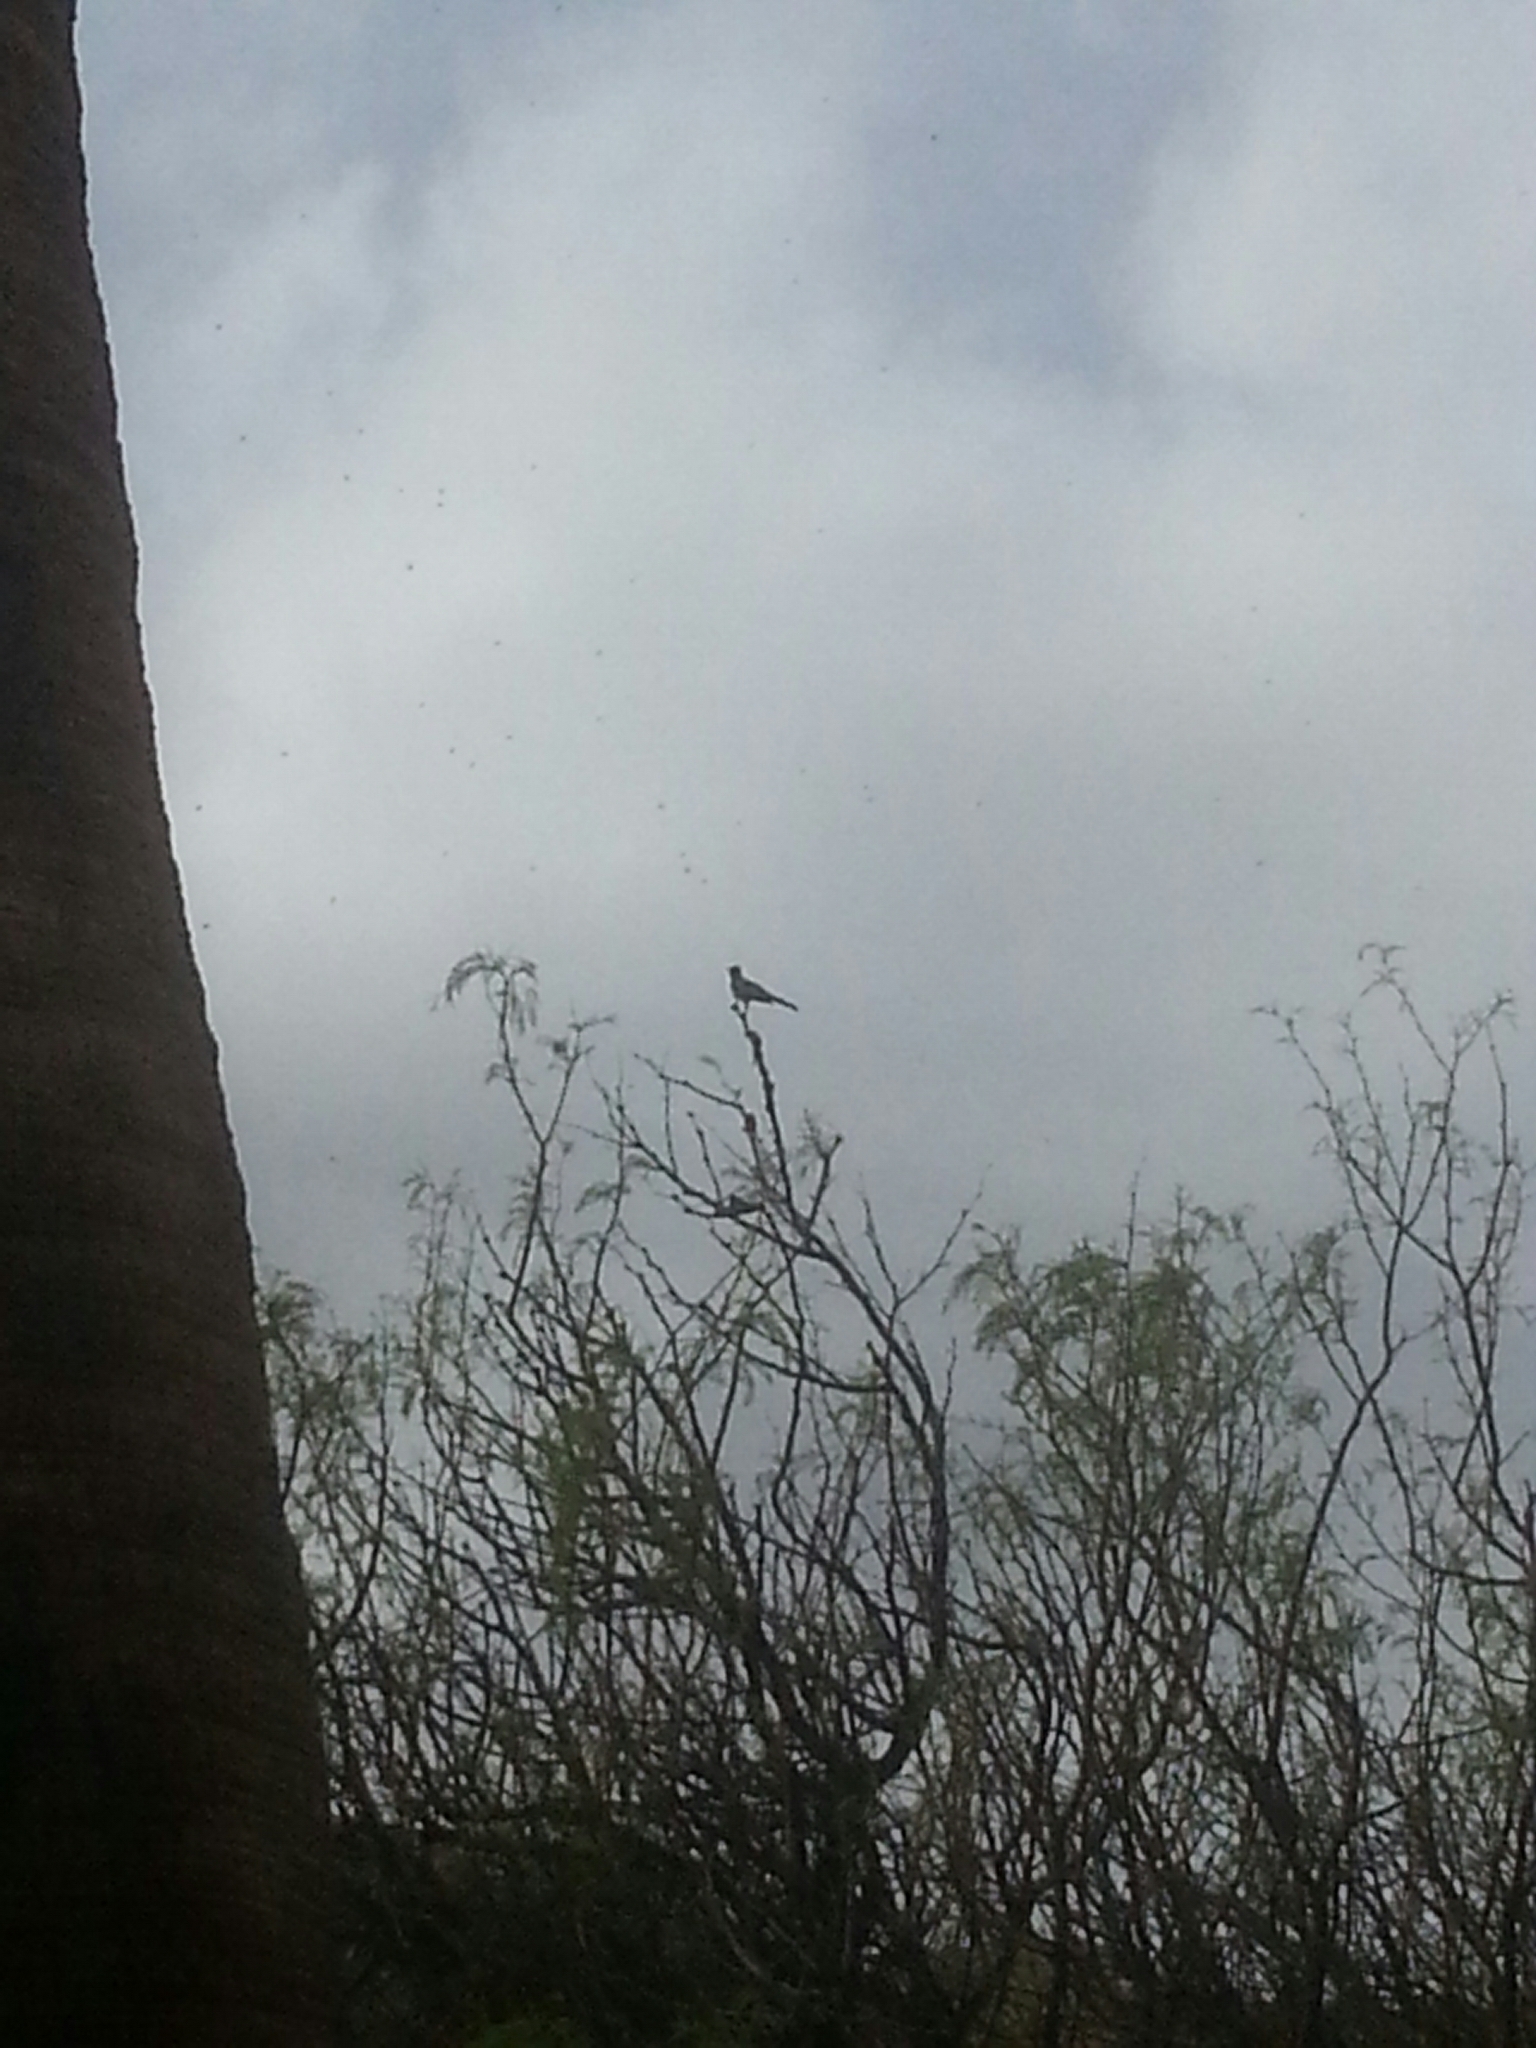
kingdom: Animalia
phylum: Chordata
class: Aves
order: Passeriformes
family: Ptilogonatidae
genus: Phainopepla
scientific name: Phainopepla nitens
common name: Phainopepla
